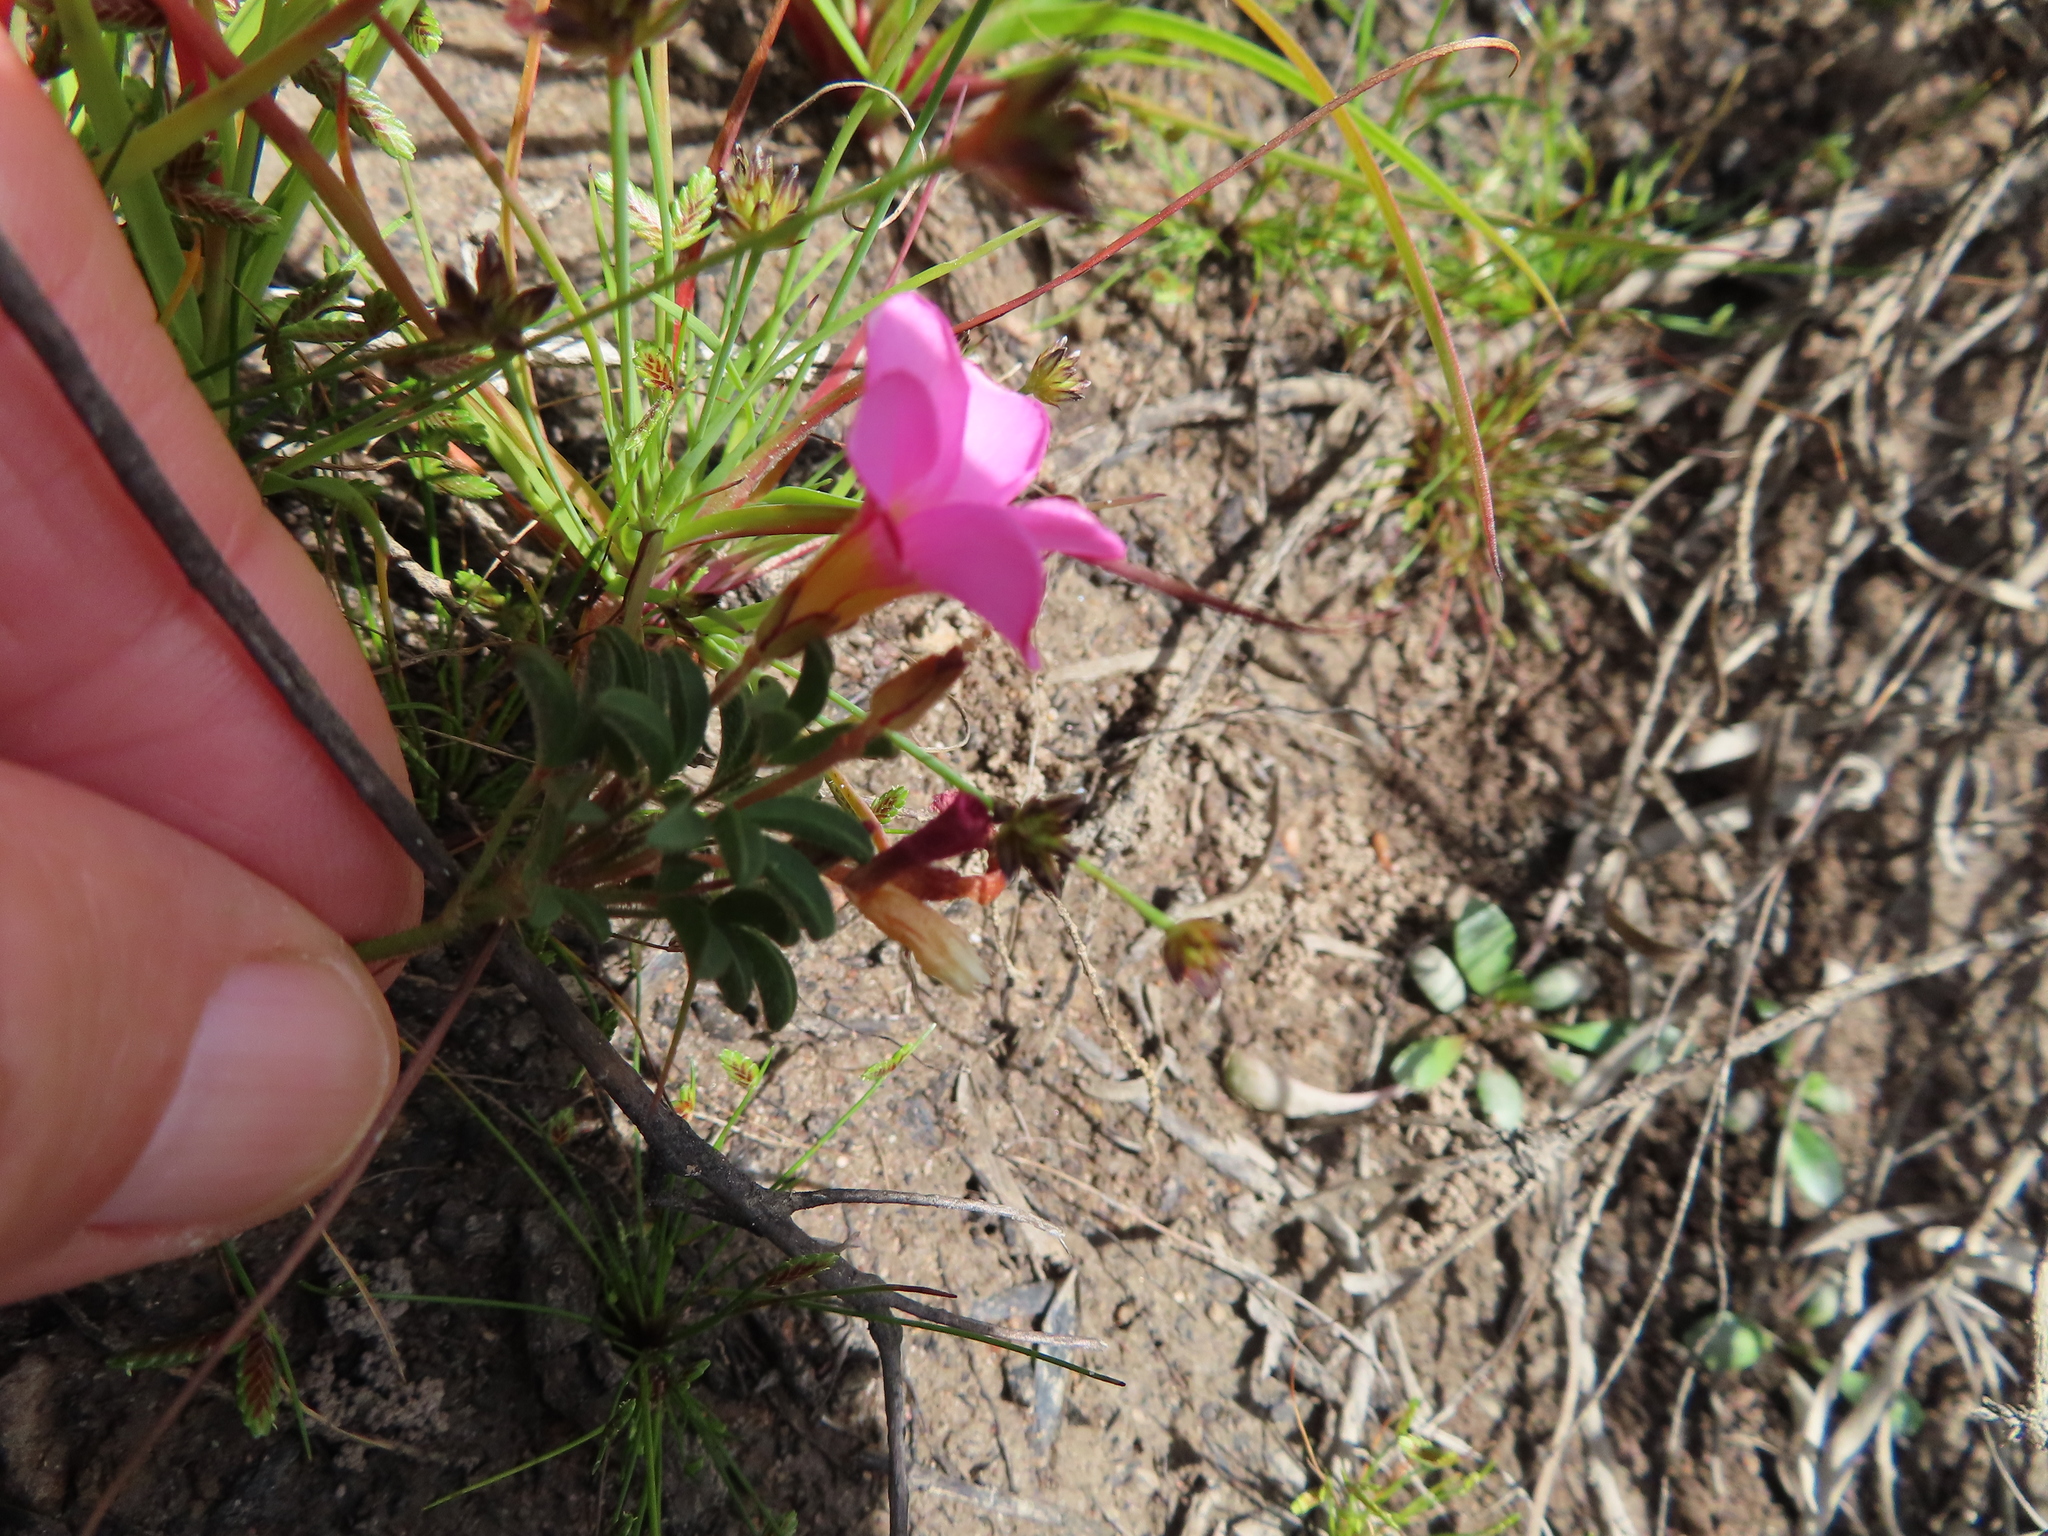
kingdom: Plantae
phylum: Tracheophyta
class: Magnoliopsida
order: Oxalidales
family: Oxalidaceae
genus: Oxalis
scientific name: Oxalis multicaulis
